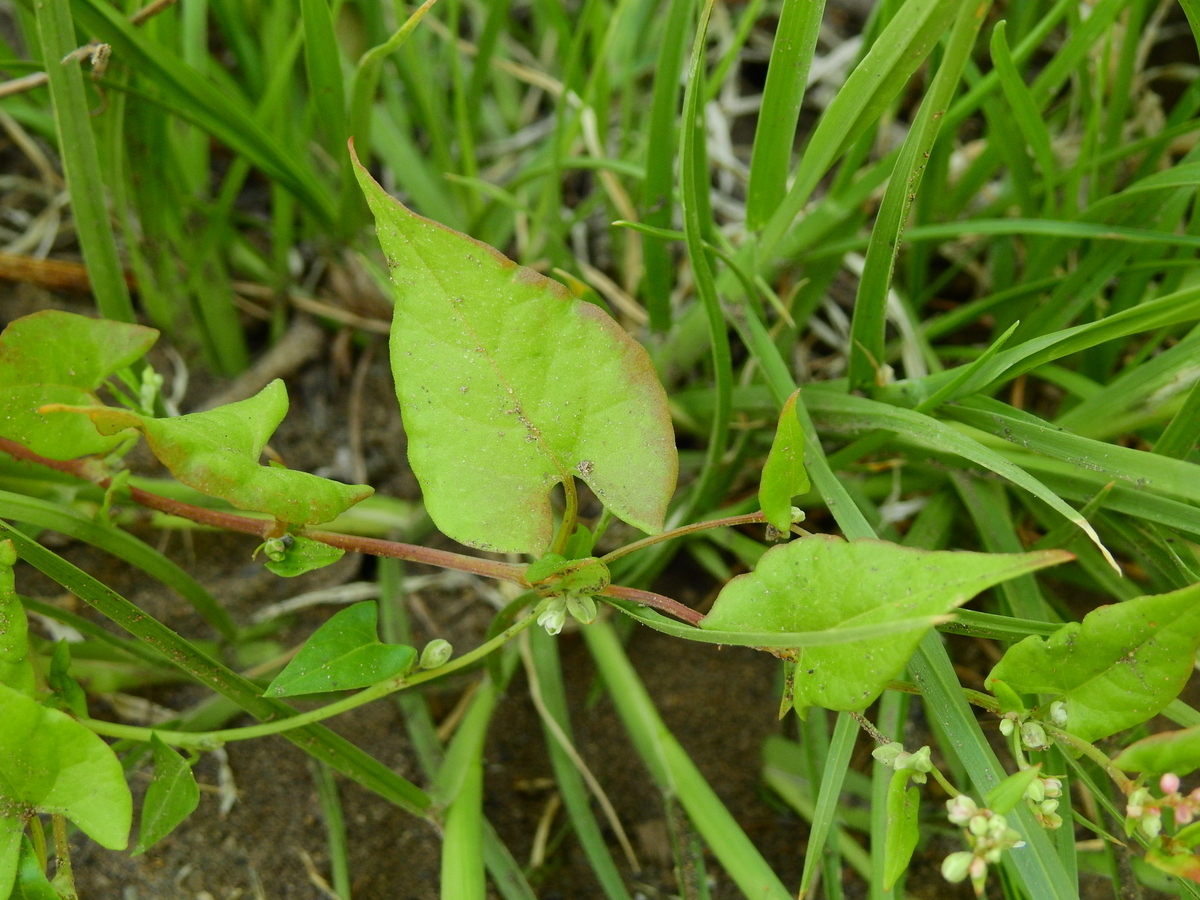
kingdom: Plantae
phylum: Tracheophyta
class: Magnoliopsida
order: Caryophyllales
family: Polygonaceae
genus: Fallopia
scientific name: Fallopia convolvulus
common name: Black bindweed
